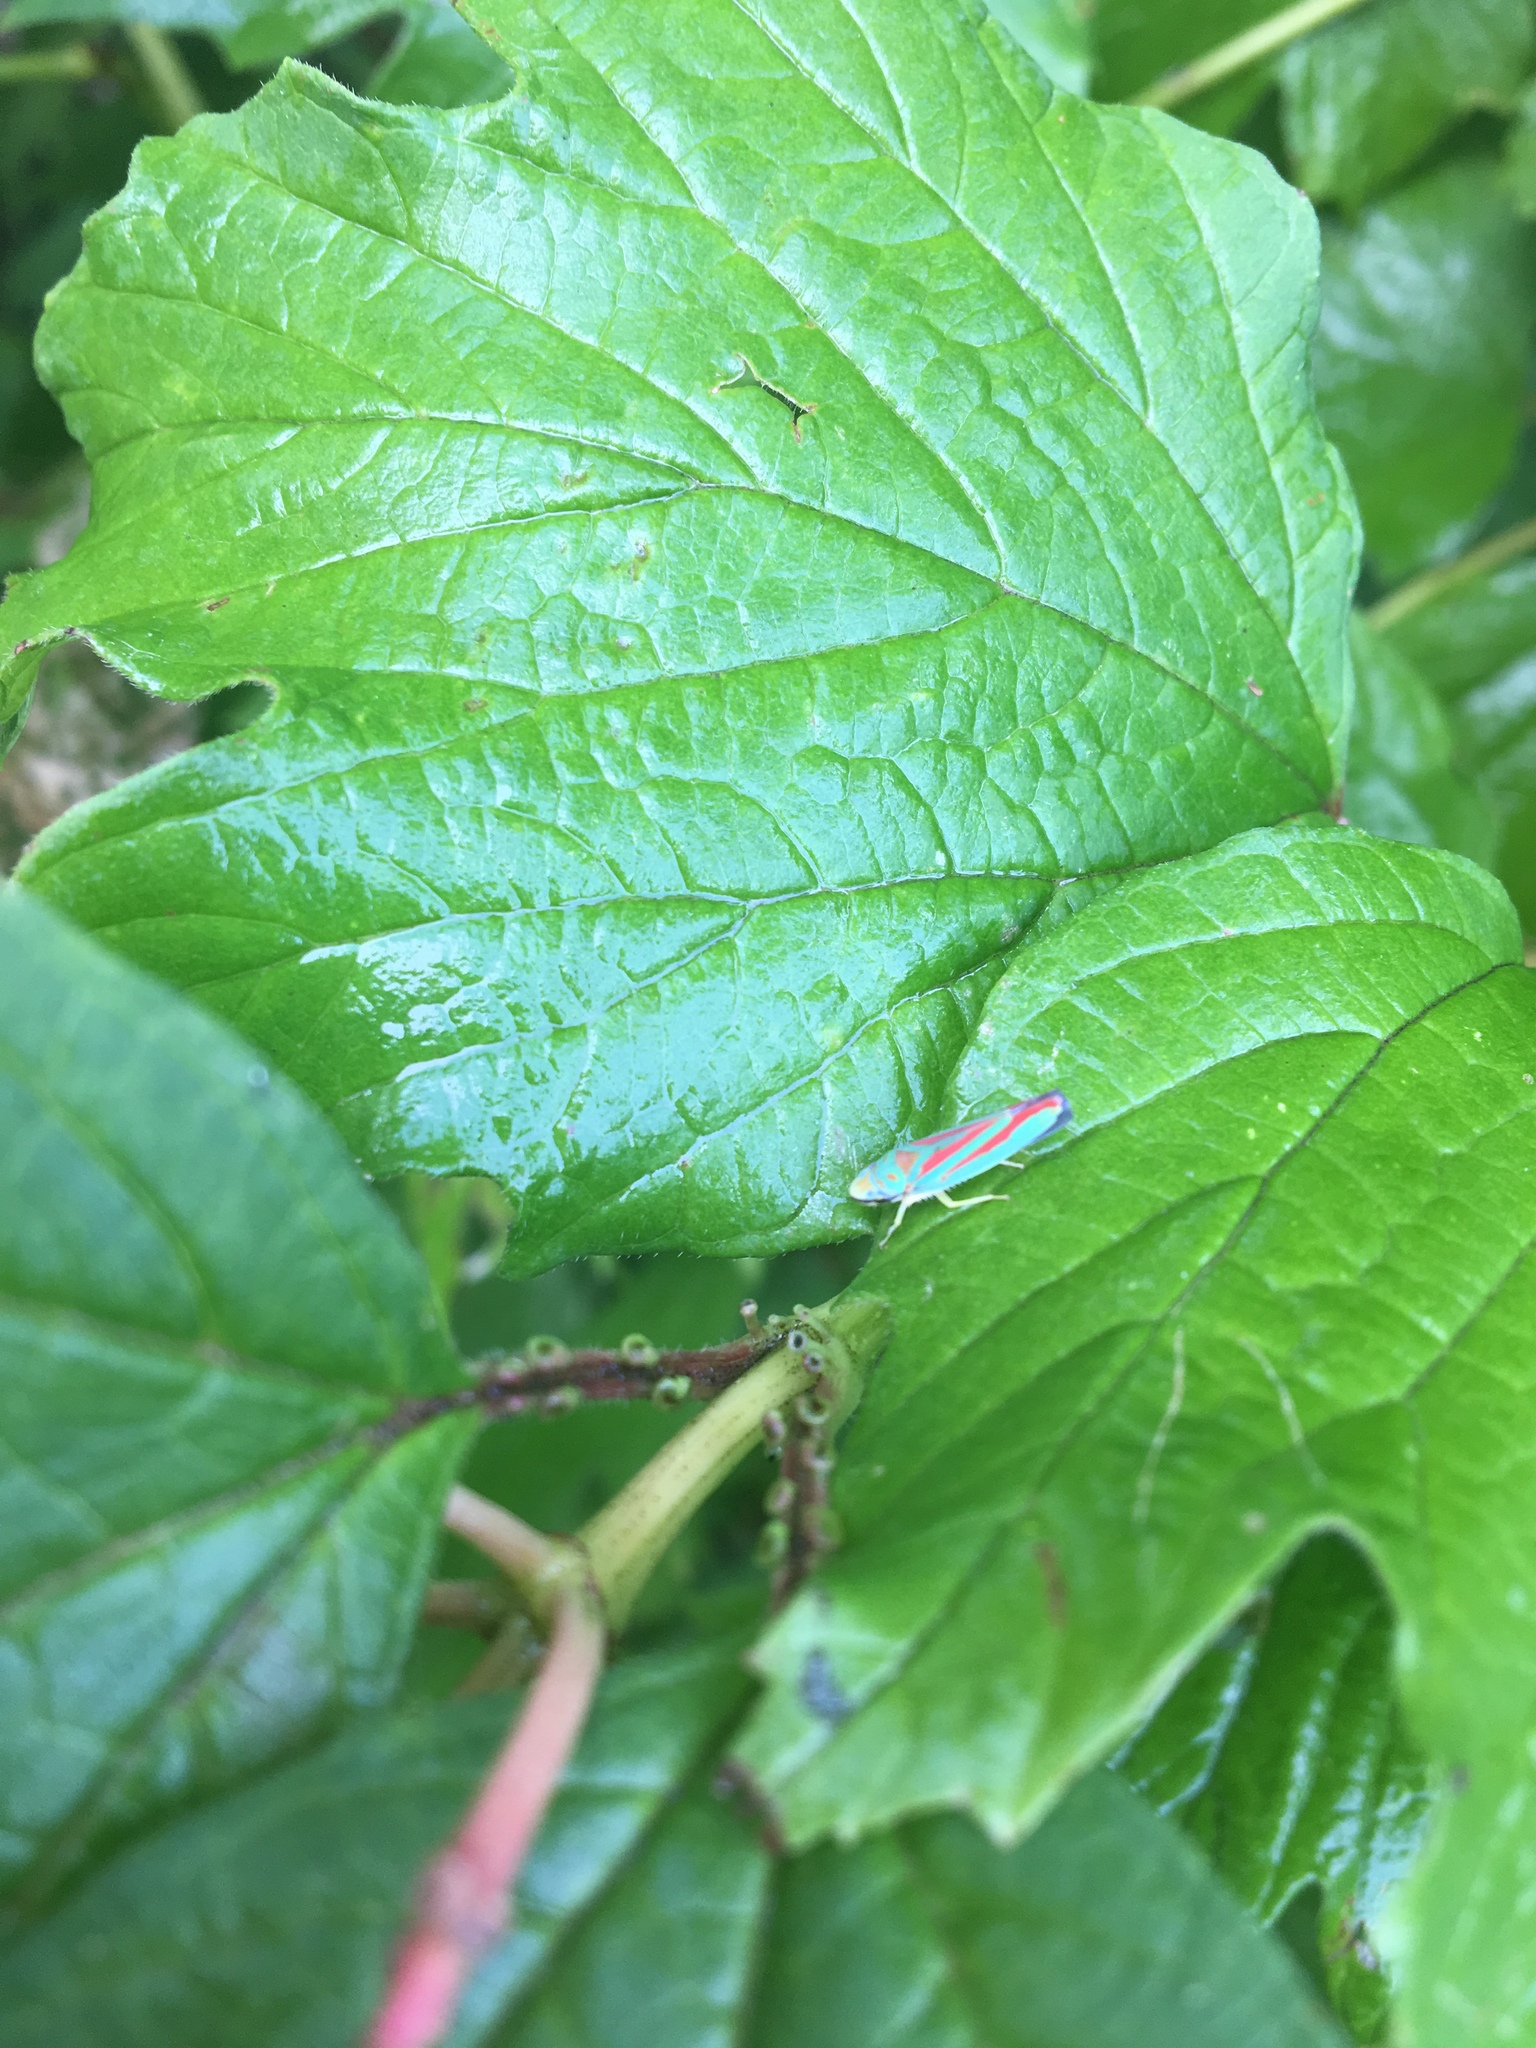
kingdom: Animalia
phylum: Arthropoda
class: Insecta
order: Hemiptera
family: Cicadellidae
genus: Graphocephala
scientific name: Graphocephala coccinea
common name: Candy-striped leafhopper
